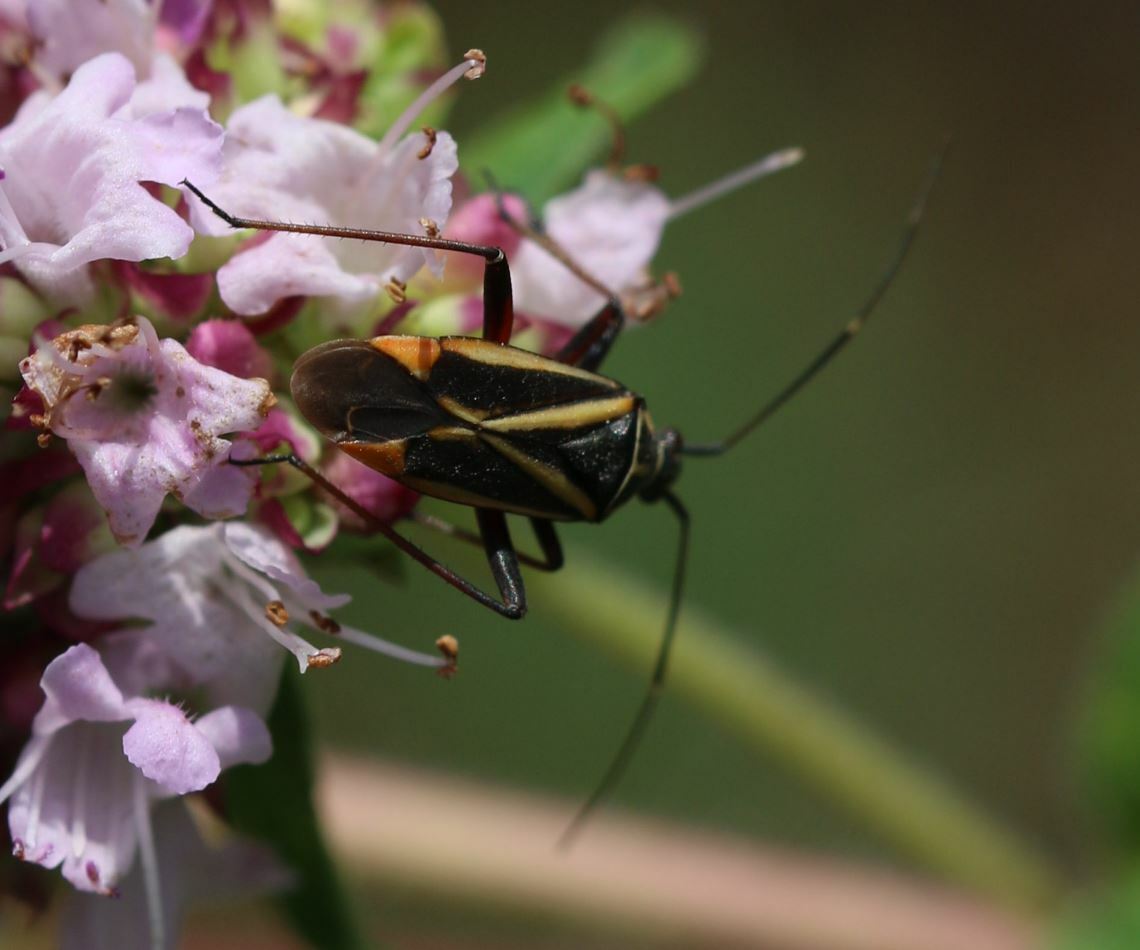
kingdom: Animalia
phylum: Arthropoda
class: Insecta
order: Hemiptera
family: Miridae
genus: Hadrodemus
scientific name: Hadrodemus m-flavum
